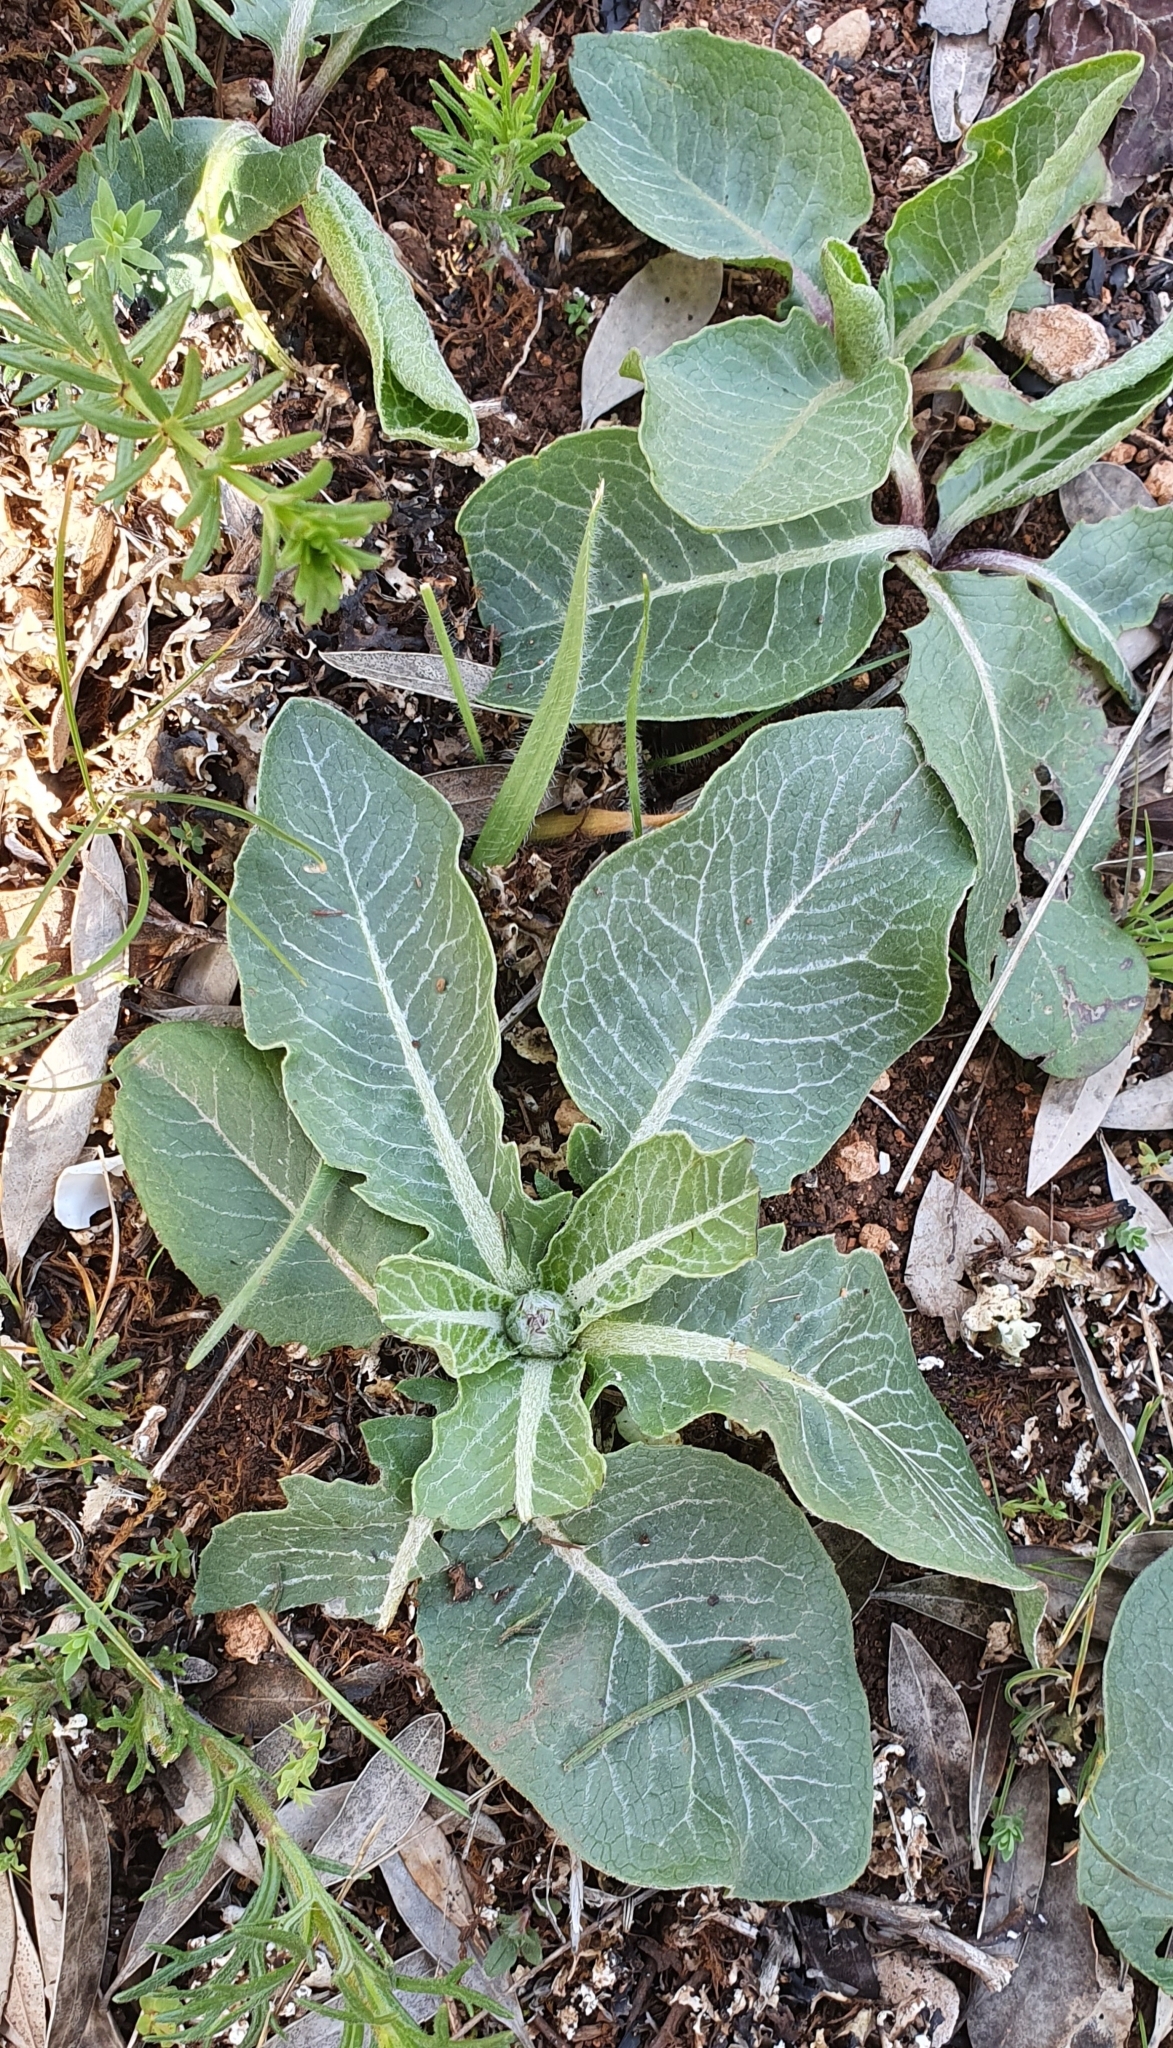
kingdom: Plantae
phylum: Tracheophyta
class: Magnoliopsida
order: Asterales
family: Asteraceae
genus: Klasea
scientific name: Klasea pinnatifida
